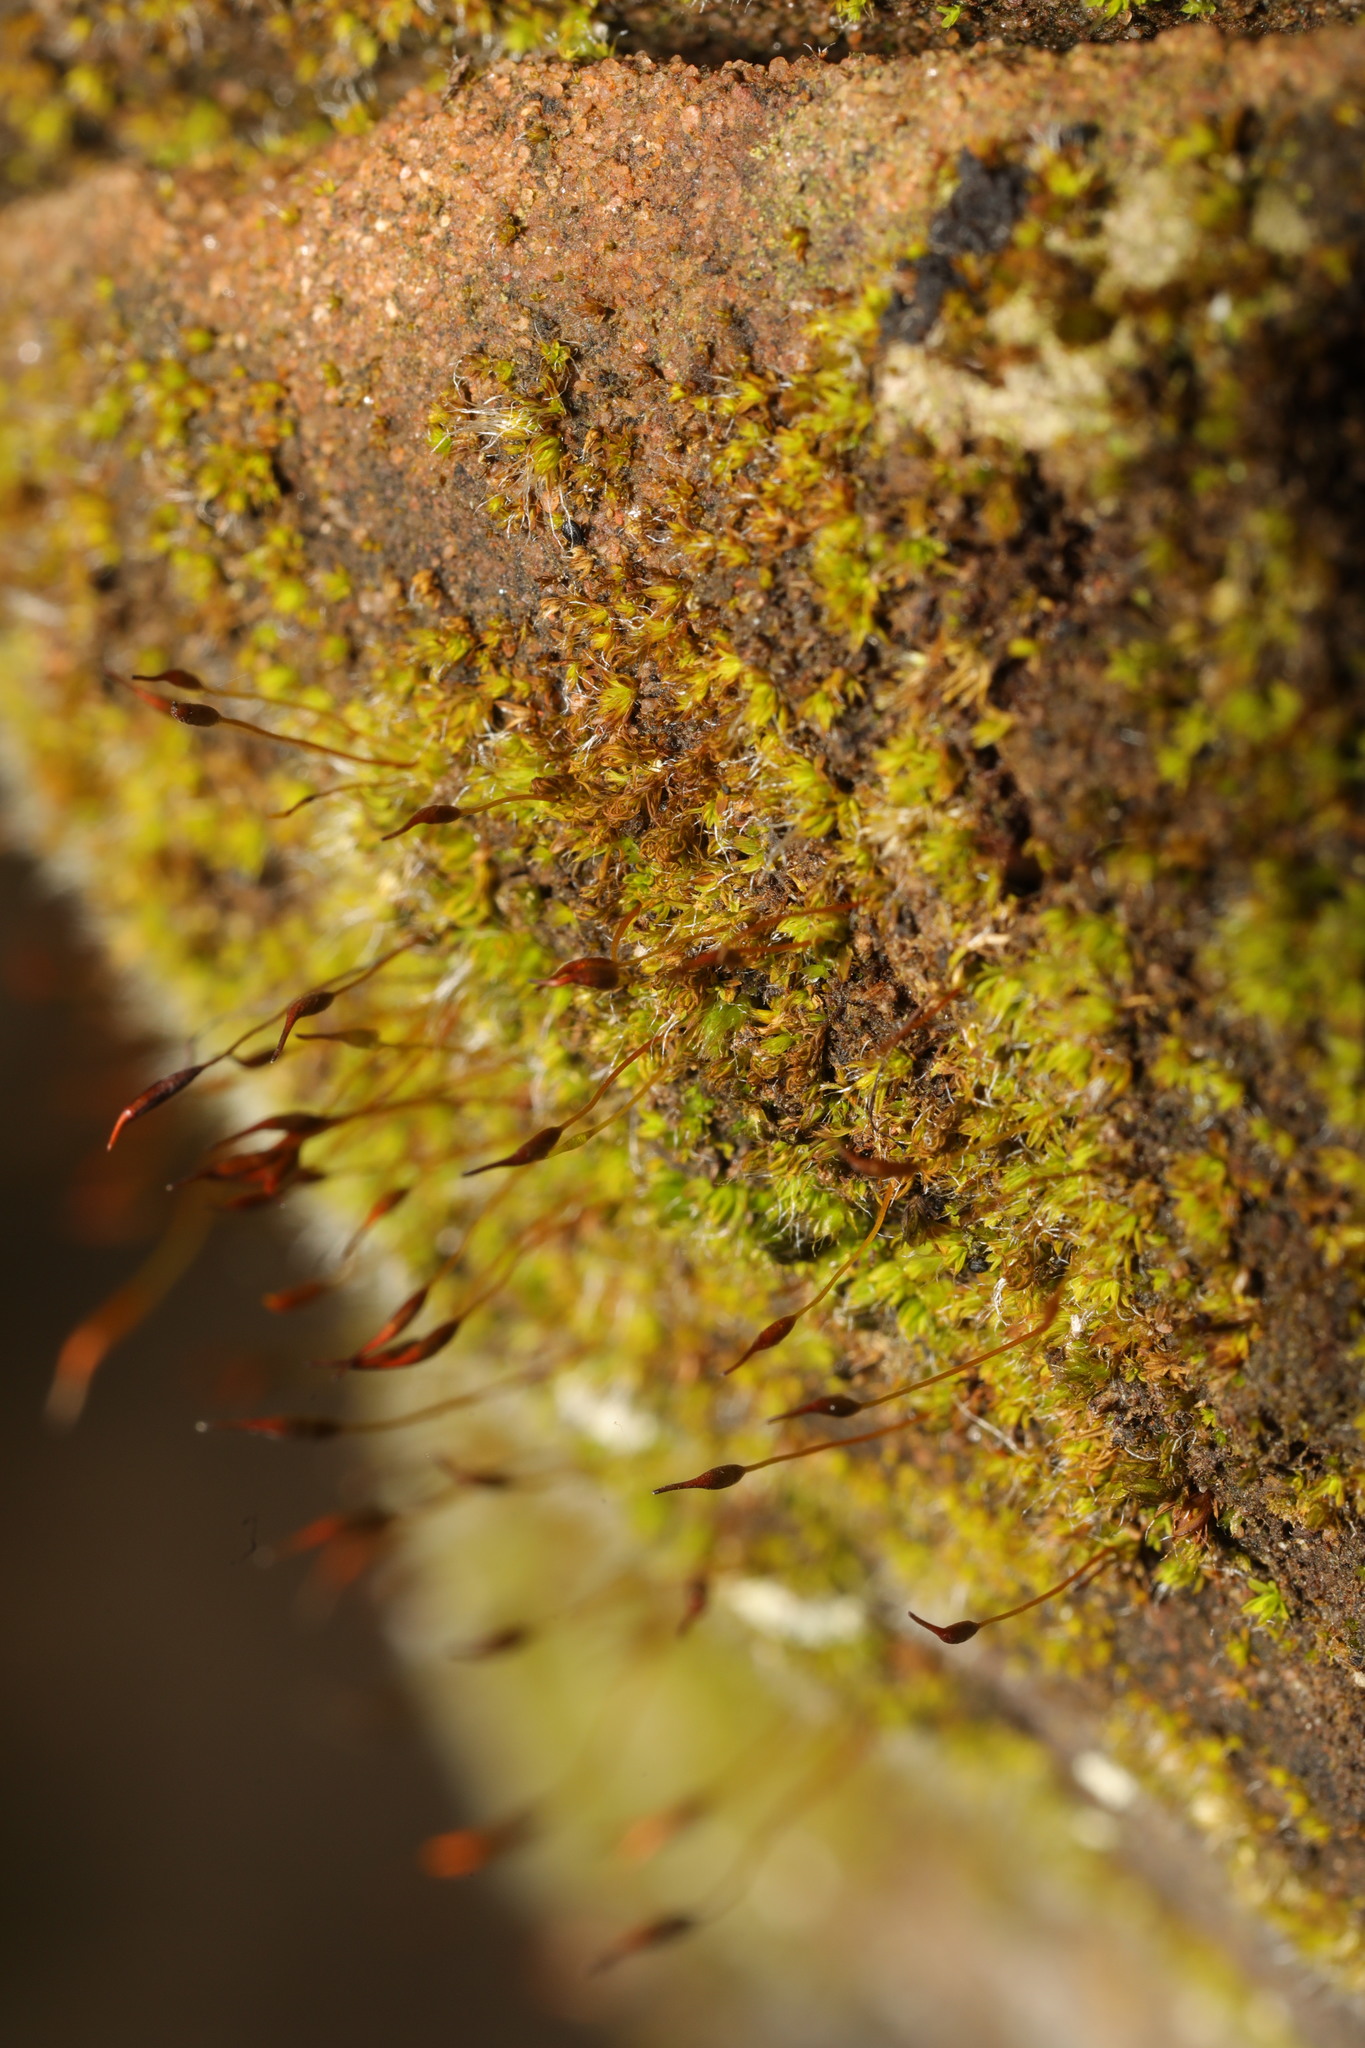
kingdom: Plantae
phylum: Bryophyta
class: Bryopsida
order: Pottiales
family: Pottiaceae
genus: Tortula
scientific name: Tortula muralis
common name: Wall screw-moss
